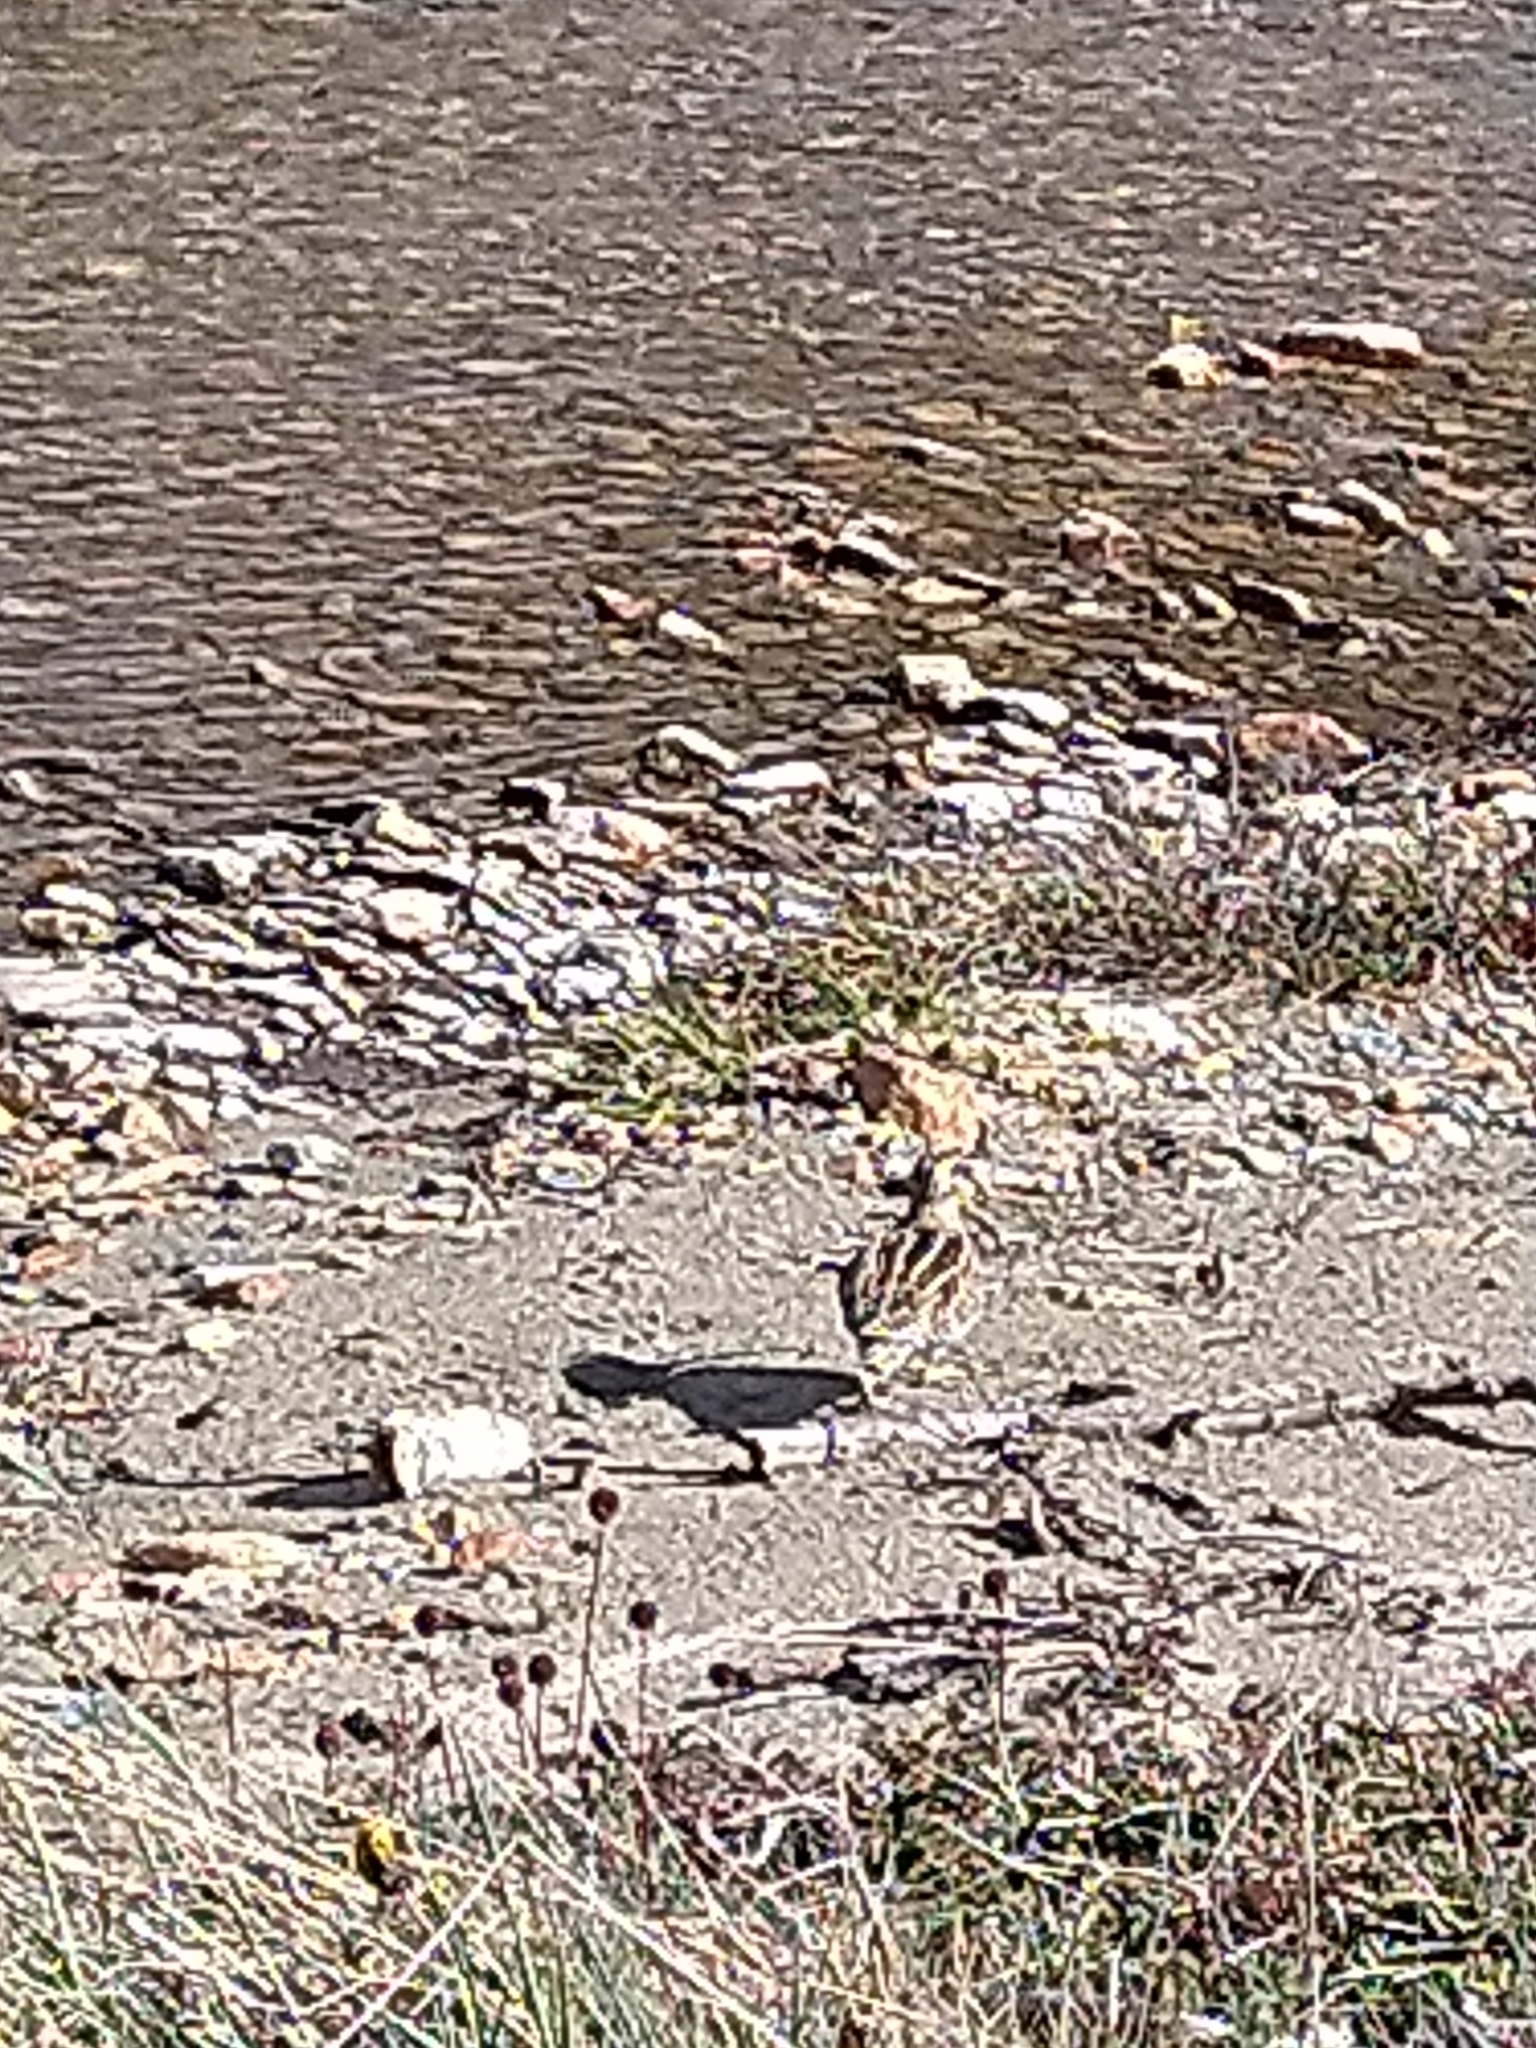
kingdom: Animalia
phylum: Chordata
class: Aves
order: Charadriiformes
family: Scolopacidae
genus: Gallinago
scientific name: Gallinago magellanica
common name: Magellanic snipe
